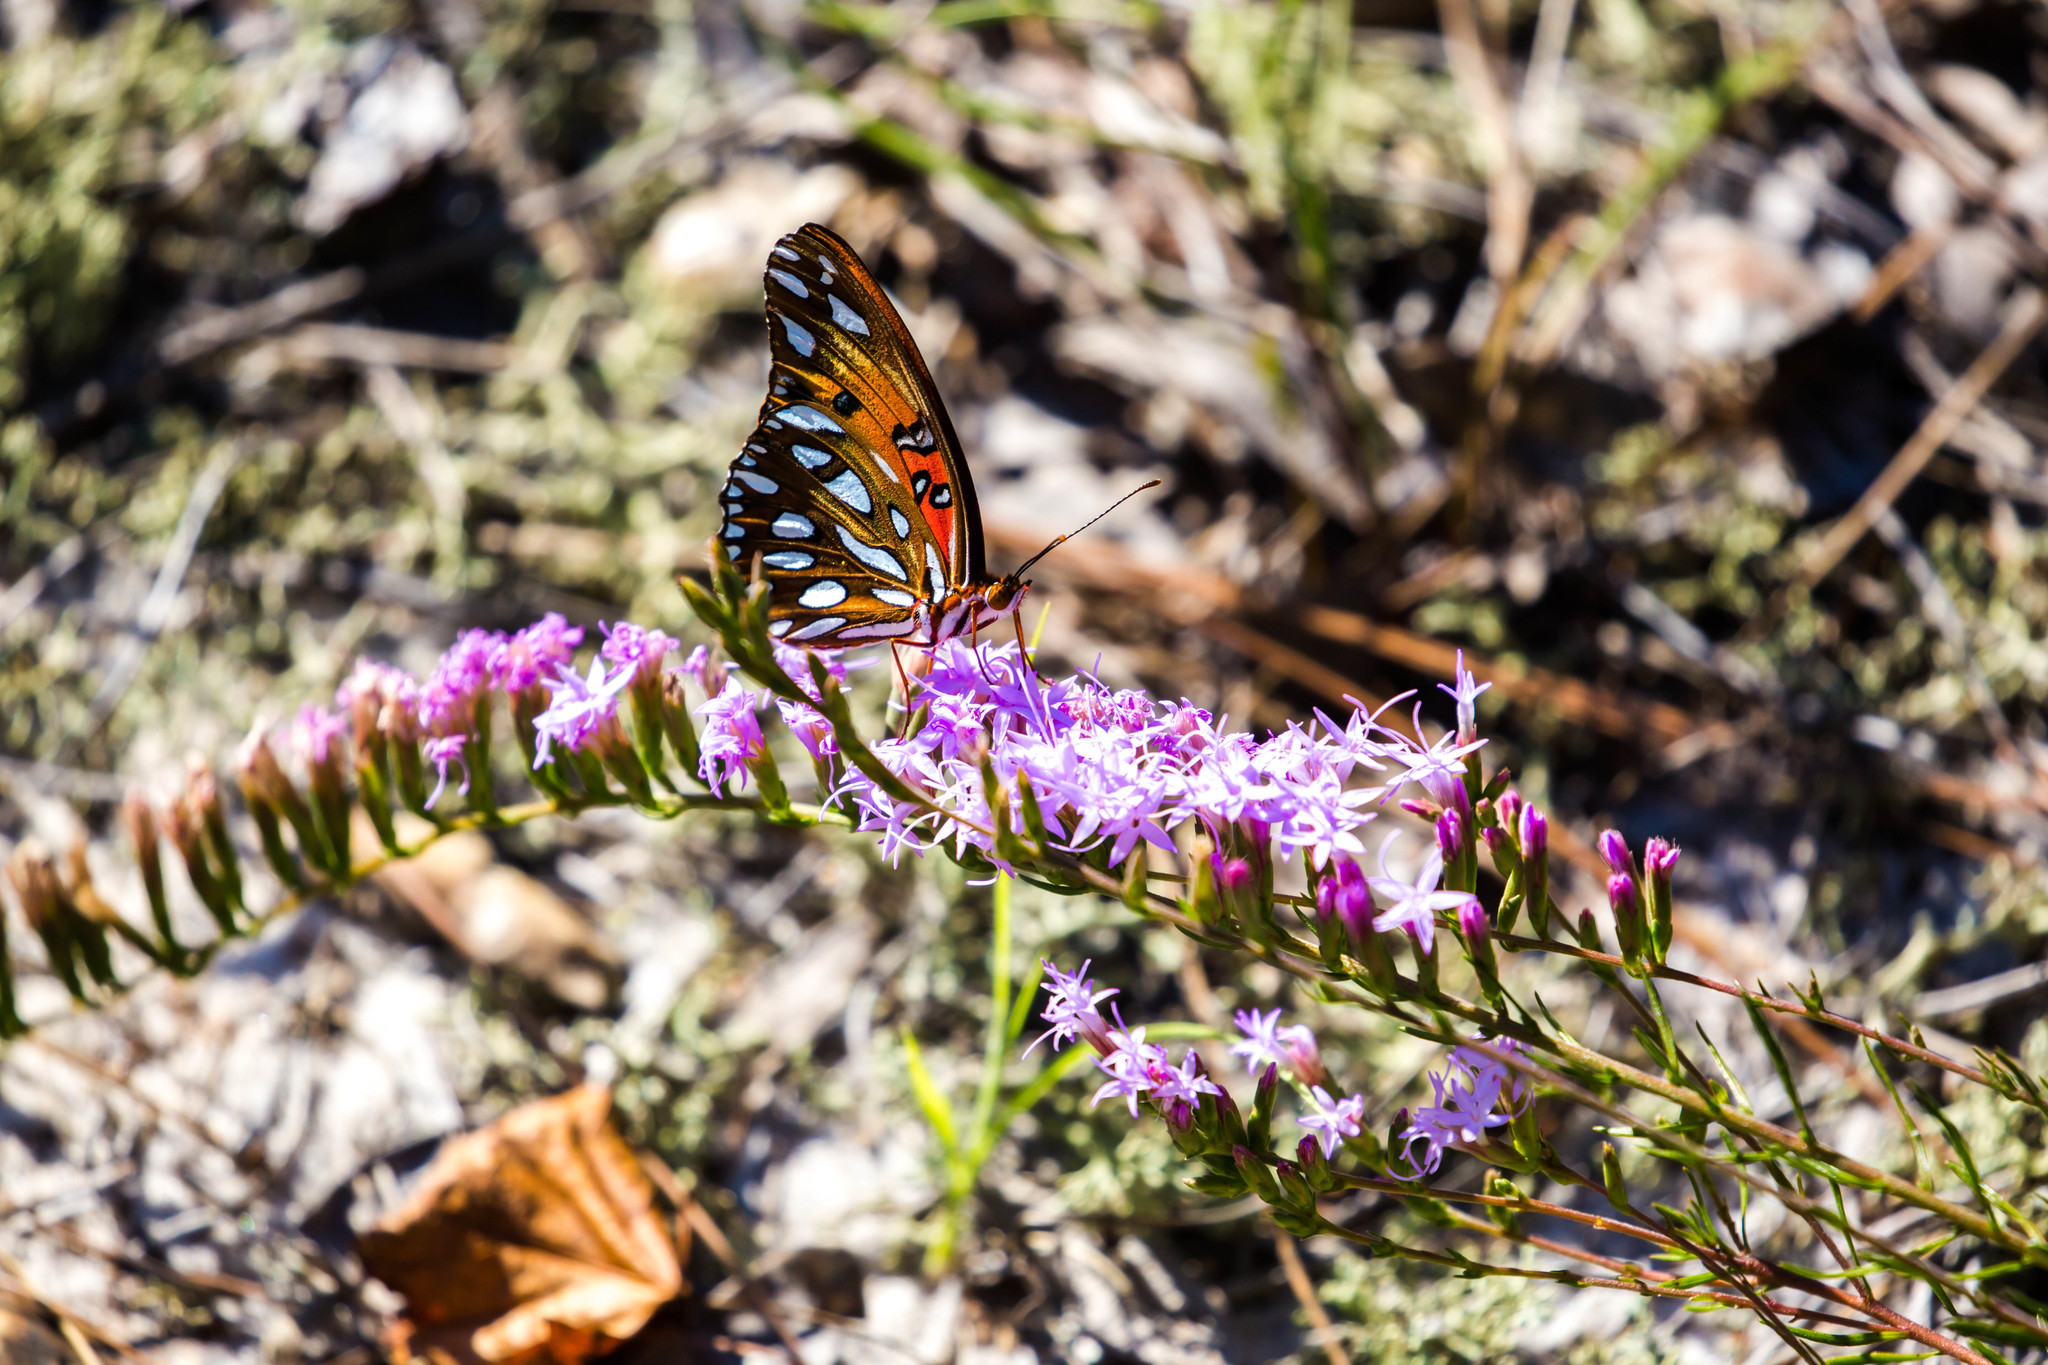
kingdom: Animalia
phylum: Arthropoda
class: Insecta
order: Lepidoptera
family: Nymphalidae
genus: Dione
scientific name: Dione vanillae
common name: Gulf fritillary
